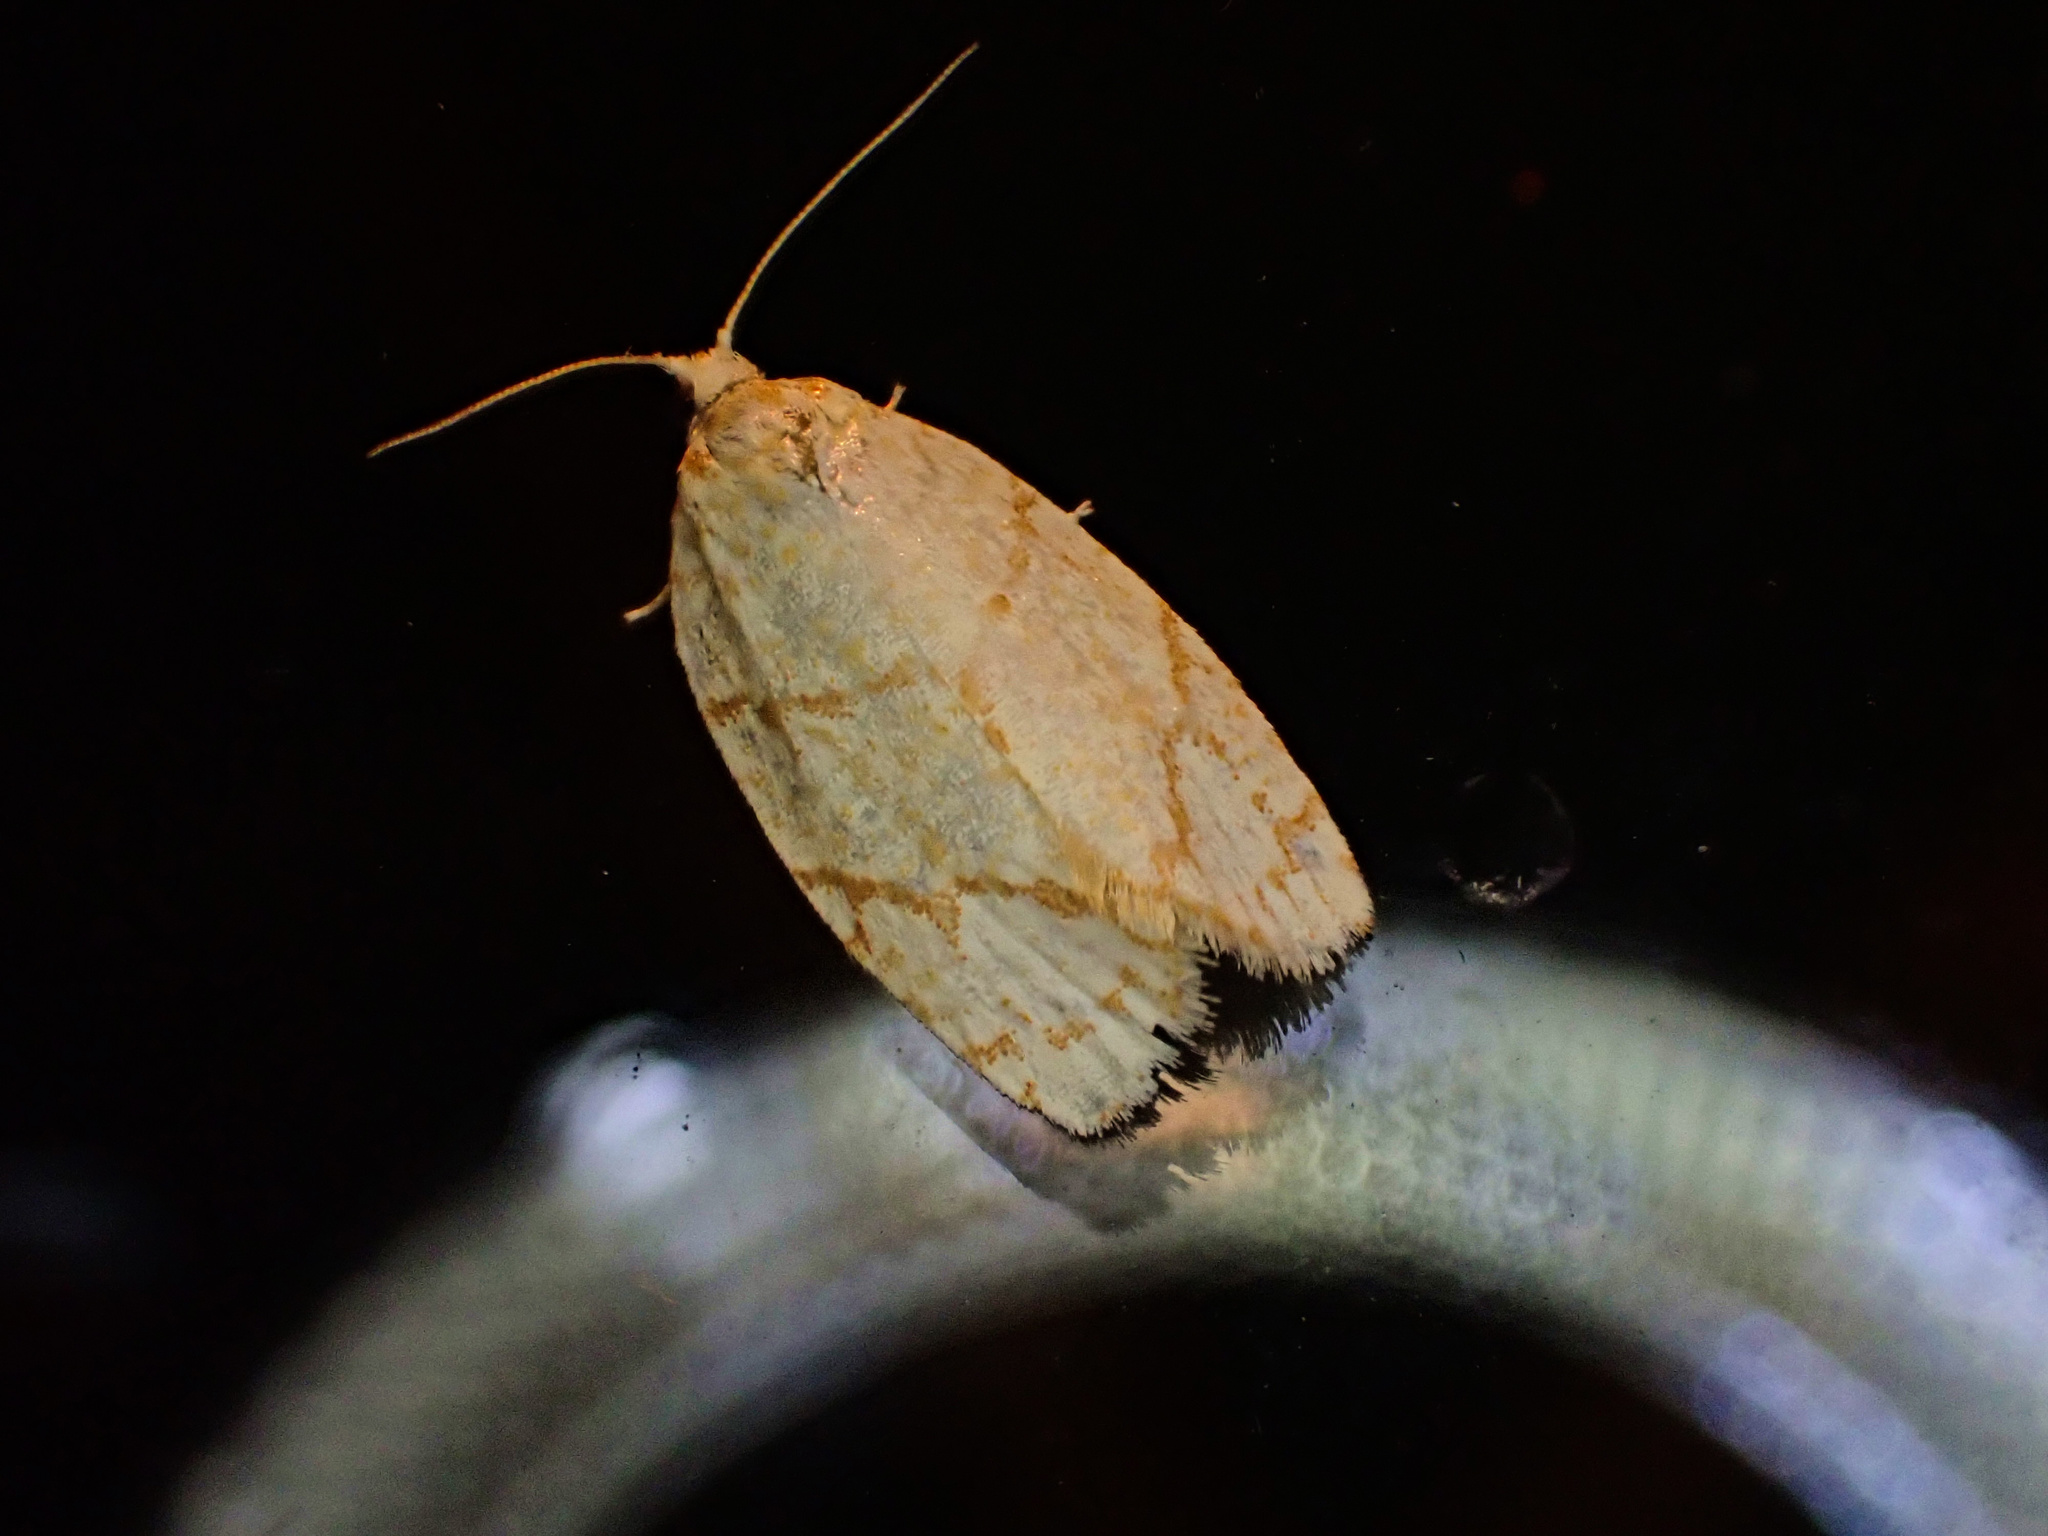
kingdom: Animalia
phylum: Arthropoda
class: Insecta
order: Lepidoptera
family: Tortricidae
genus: Argyrotaenia
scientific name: Argyrotaenia quercifoliana
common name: Yellow-winged oak leafroller moth
